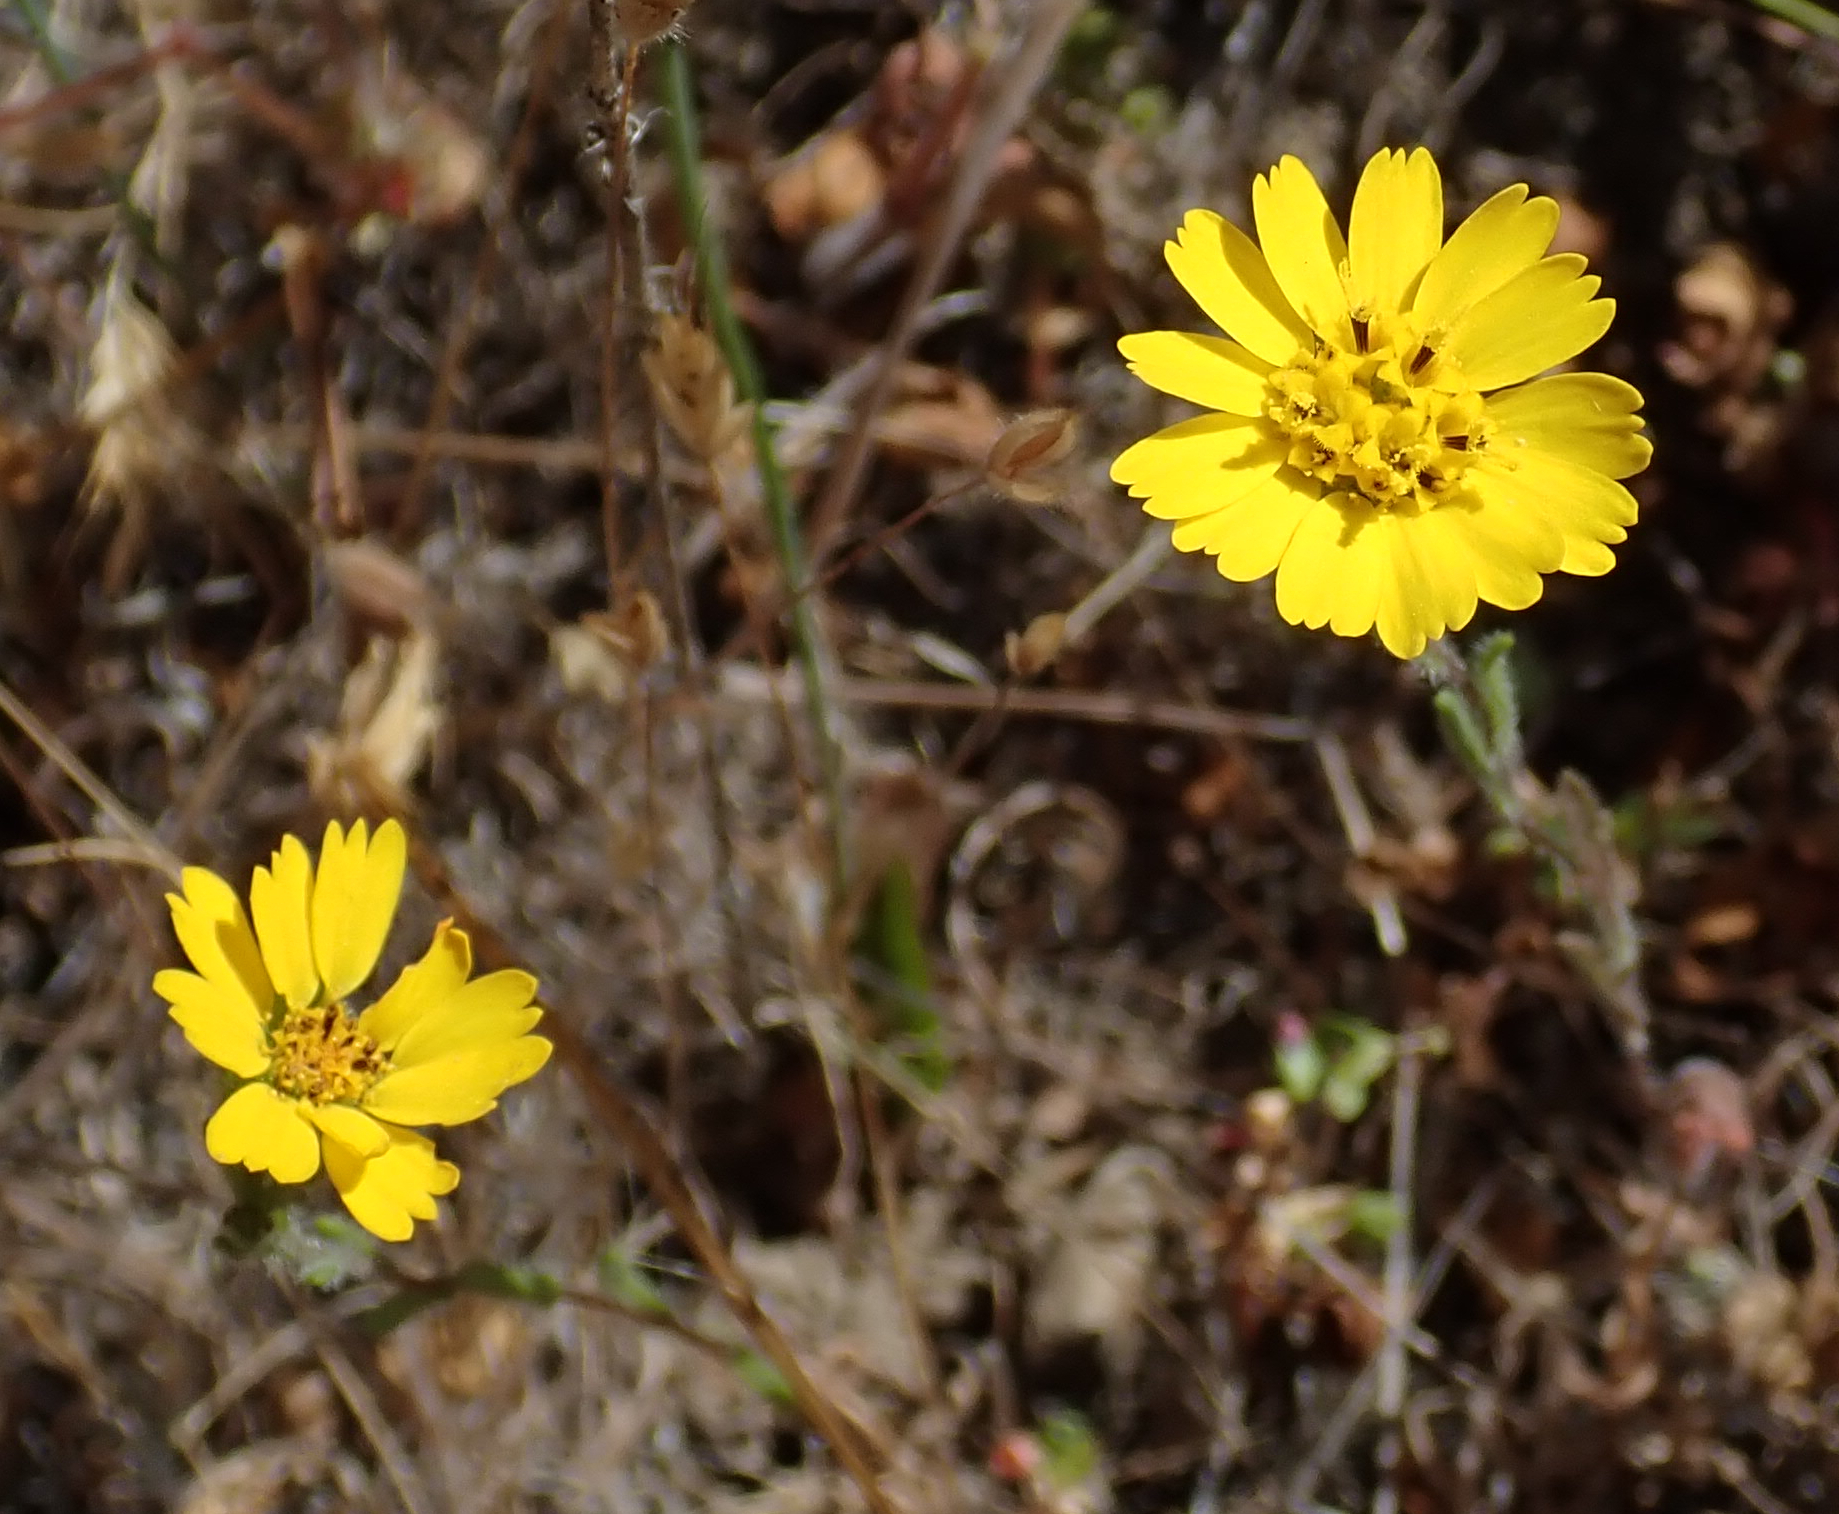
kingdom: Plantae
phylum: Tracheophyta
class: Magnoliopsida
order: Asterales
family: Asteraceae
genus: Deinandra
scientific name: Deinandra corymbosa
